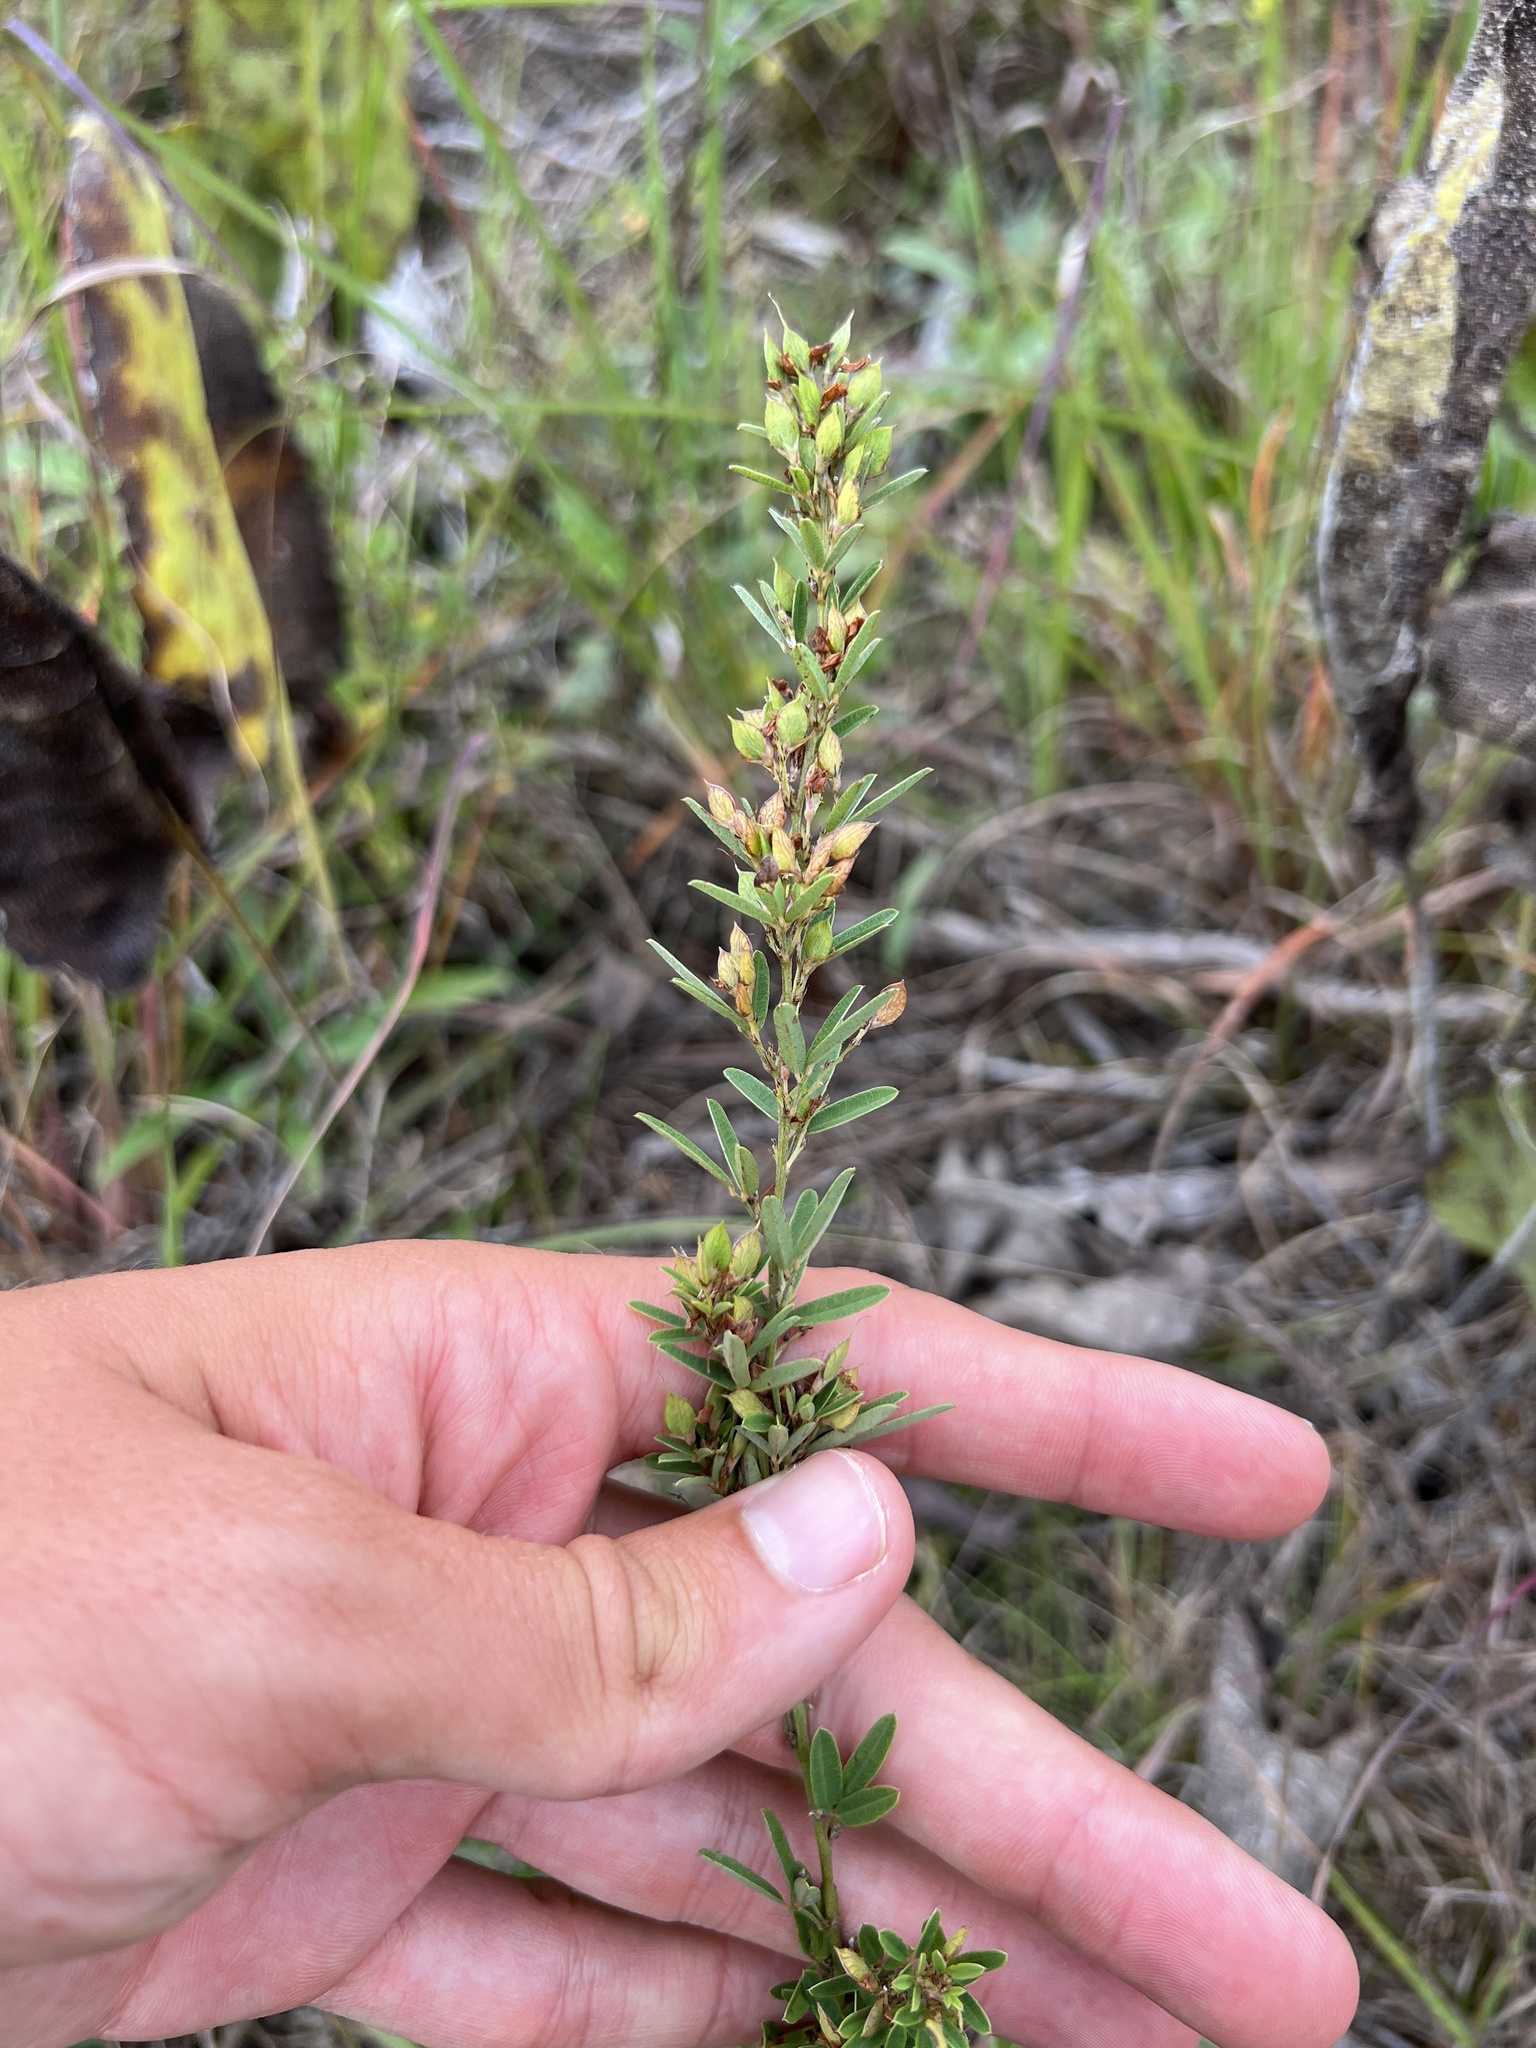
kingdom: Plantae
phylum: Tracheophyta
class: Magnoliopsida
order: Fabales
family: Fabaceae
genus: Lespedeza
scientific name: Lespedeza virginica
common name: Slender bush-clover
